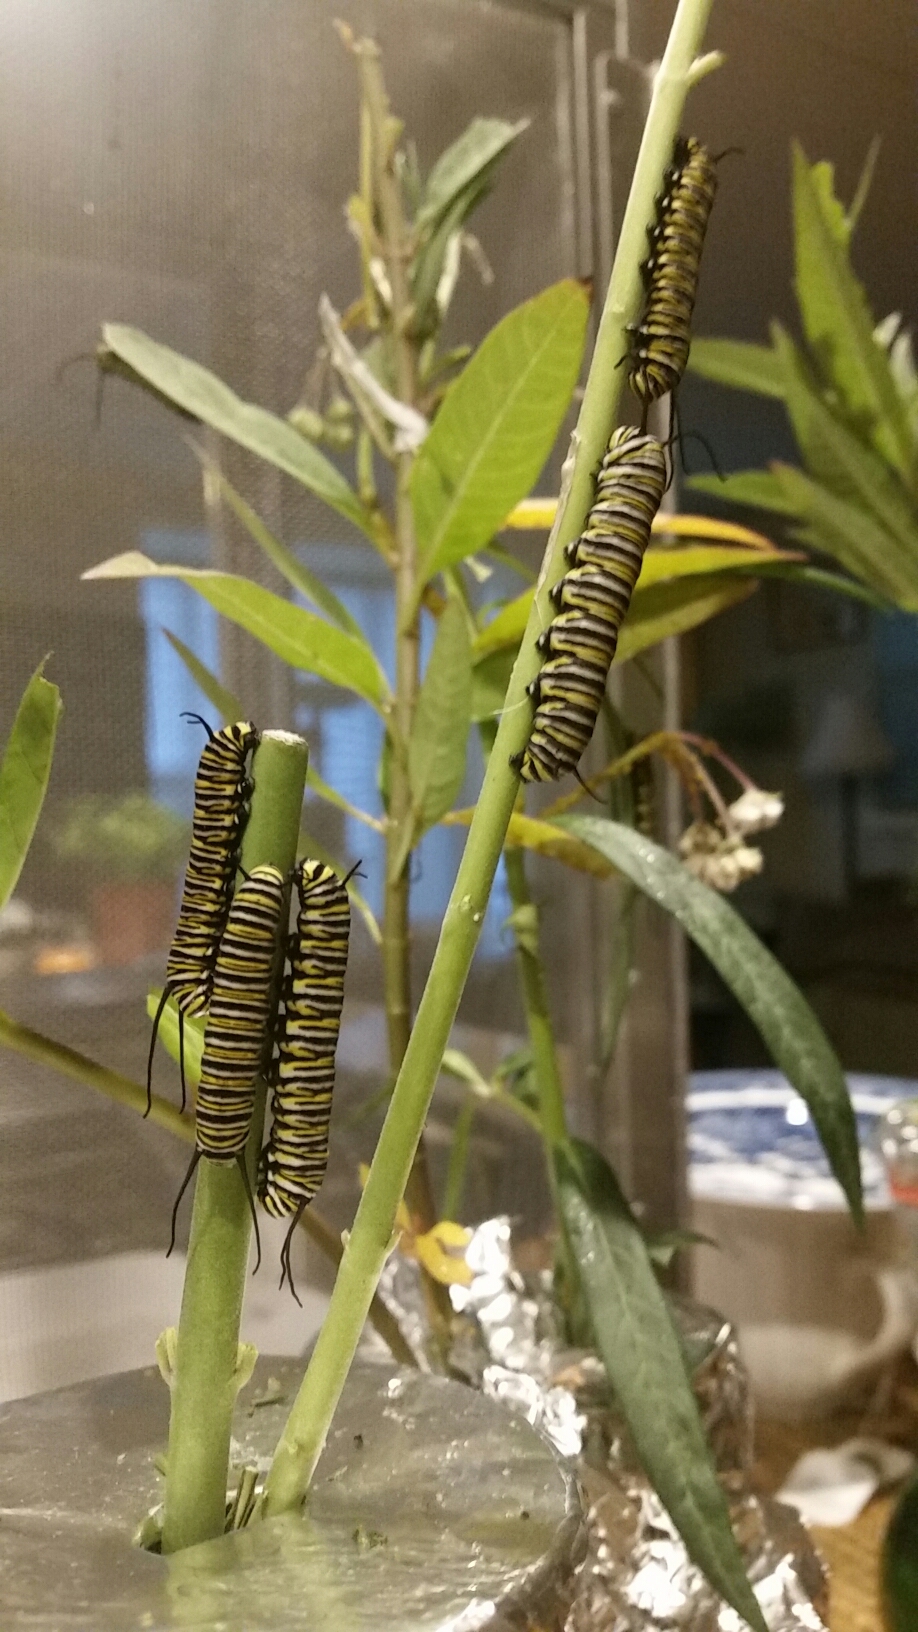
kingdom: Animalia
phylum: Arthropoda
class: Insecta
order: Lepidoptera
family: Nymphalidae
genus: Danaus
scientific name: Danaus plexippus
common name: Monarch
